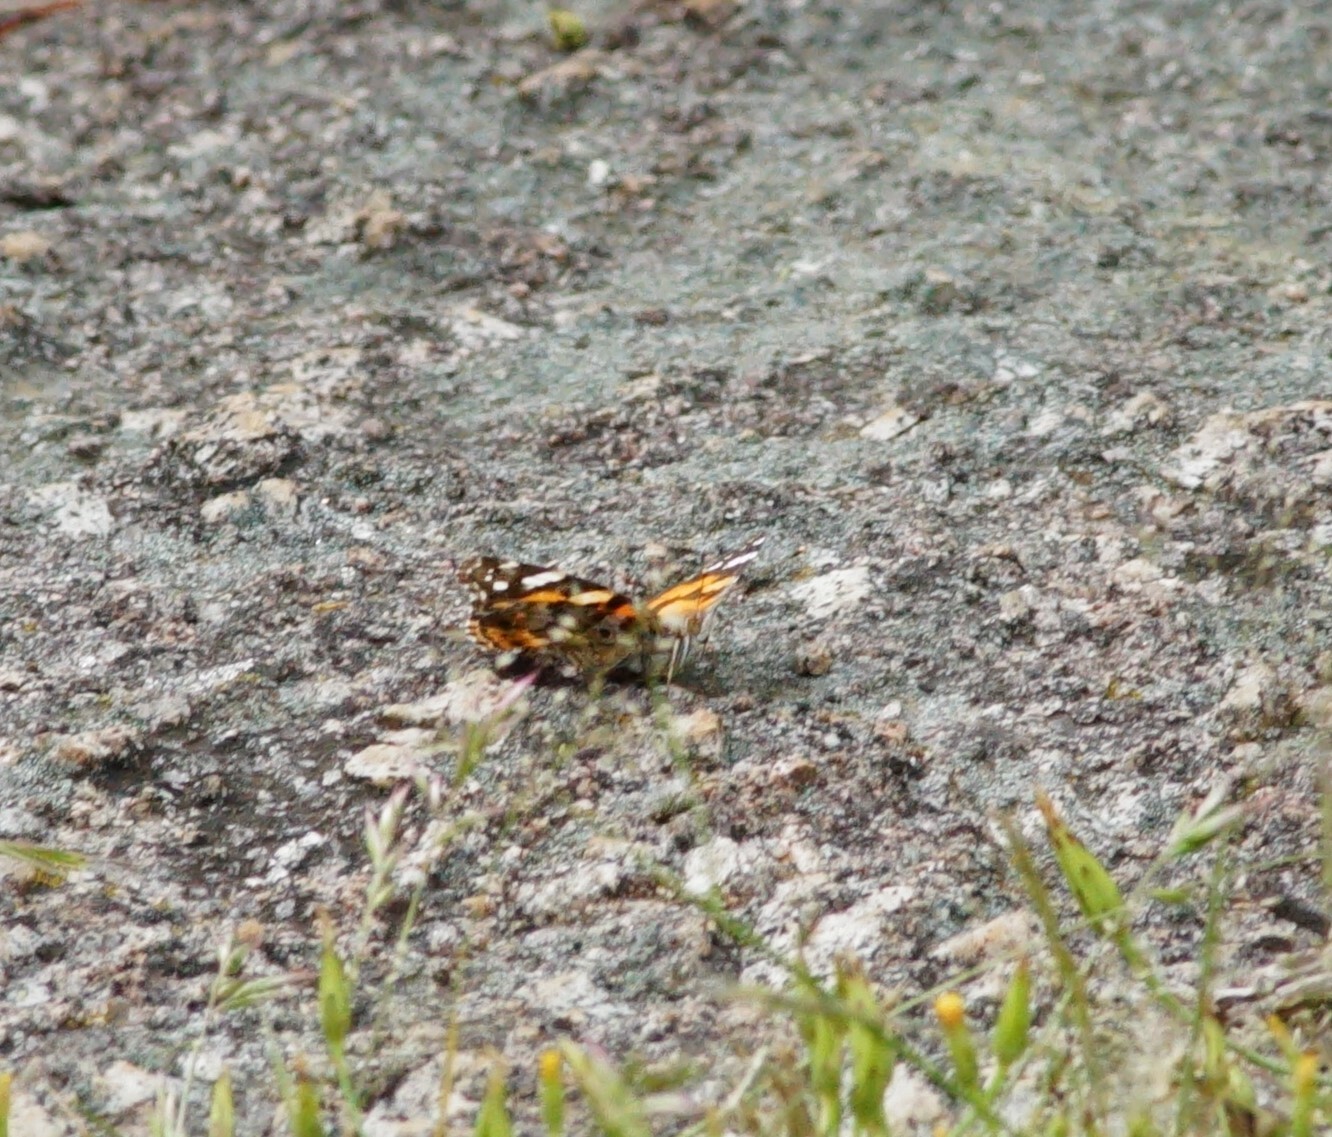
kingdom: Animalia
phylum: Arthropoda
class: Insecta
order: Lepidoptera
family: Nymphalidae
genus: Vanessa
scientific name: Vanessa kershawi
